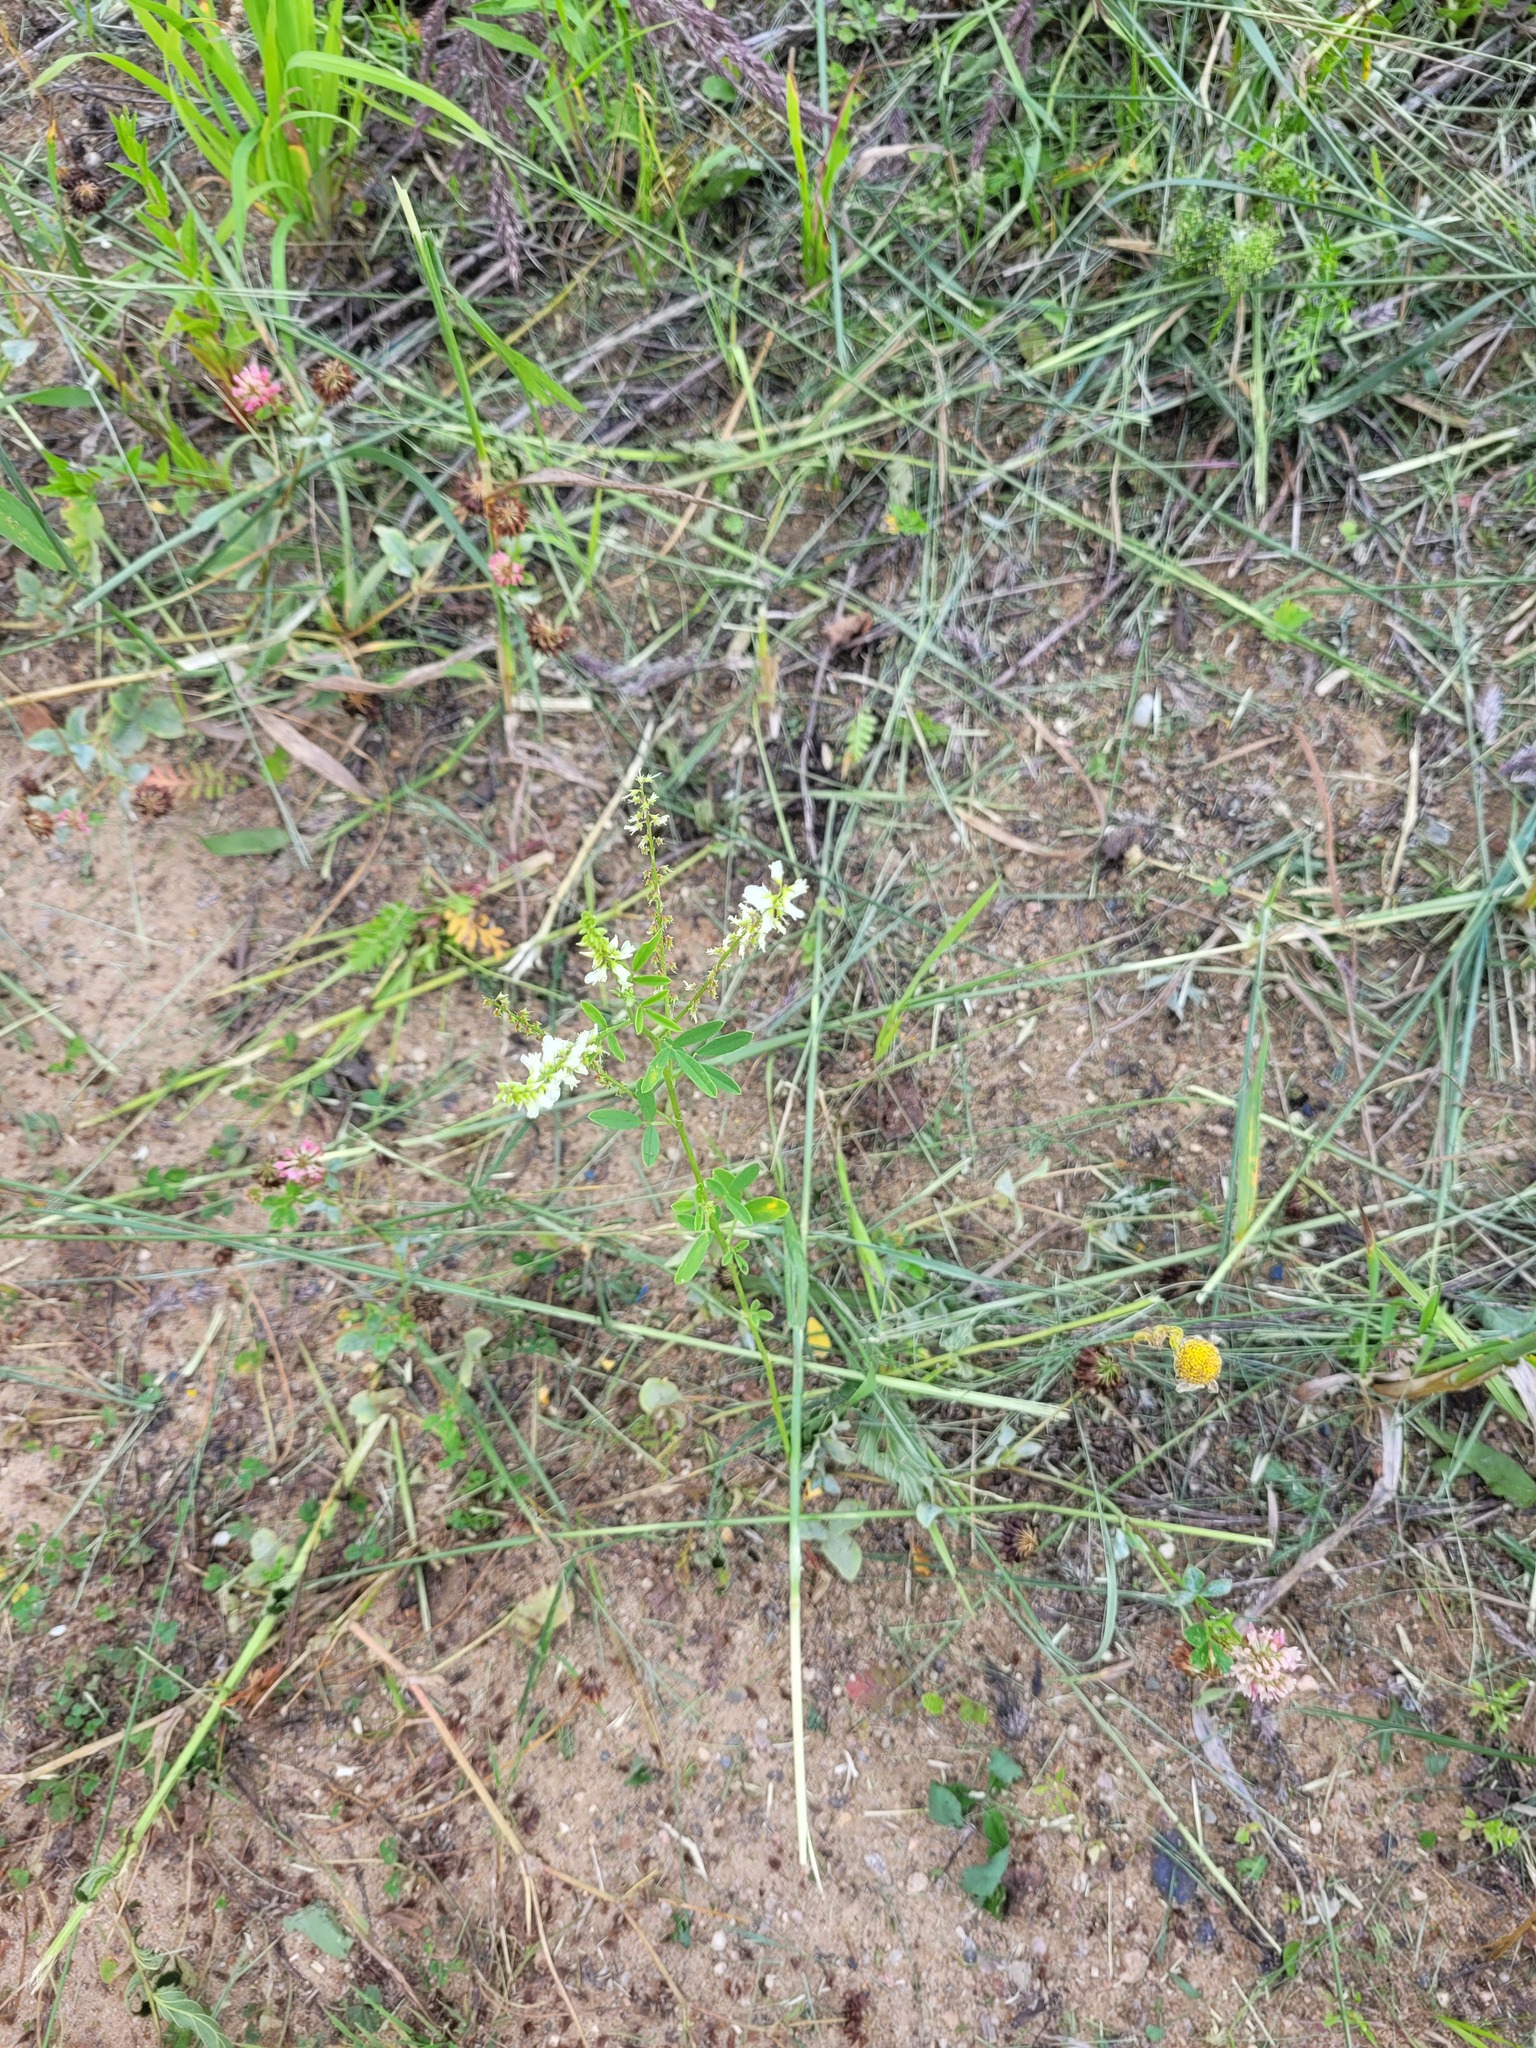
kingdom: Plantae
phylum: Tracheophyta
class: Magnoliopsida
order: Fabales
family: Fabaceae
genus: Melilotus
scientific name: Melilotus albus
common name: White melilot
